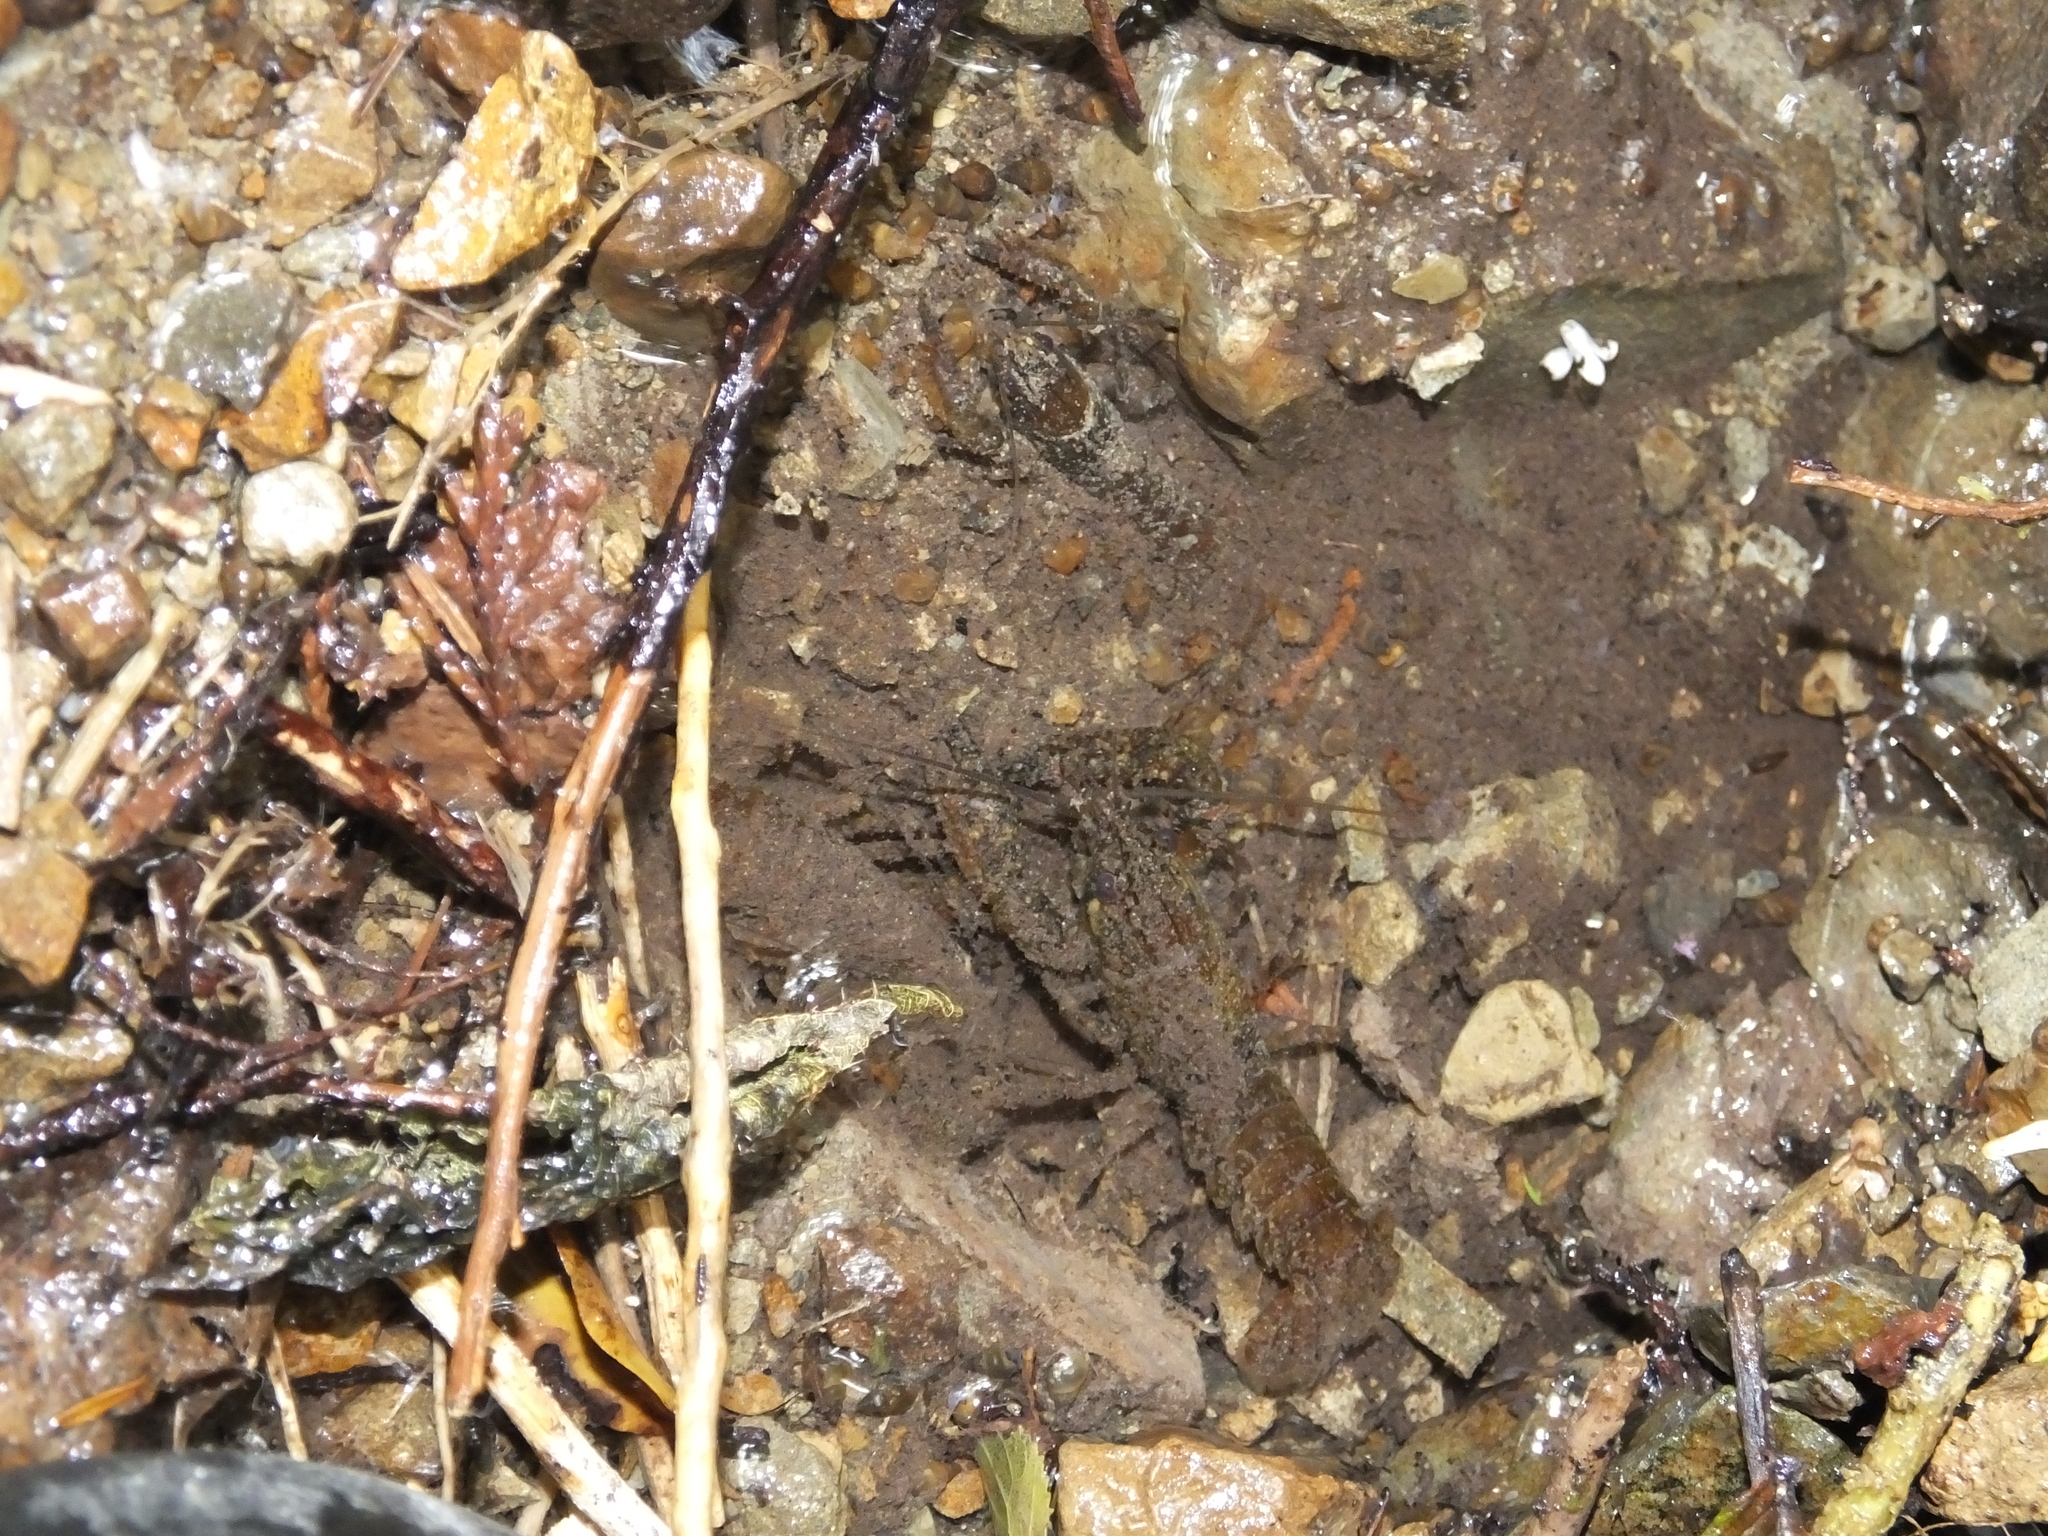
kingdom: Animalia
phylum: Arthropoda
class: Malacostraca
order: Decapoda
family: Parastacidae
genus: Paranephrops
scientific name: Paranephrops planifrons
